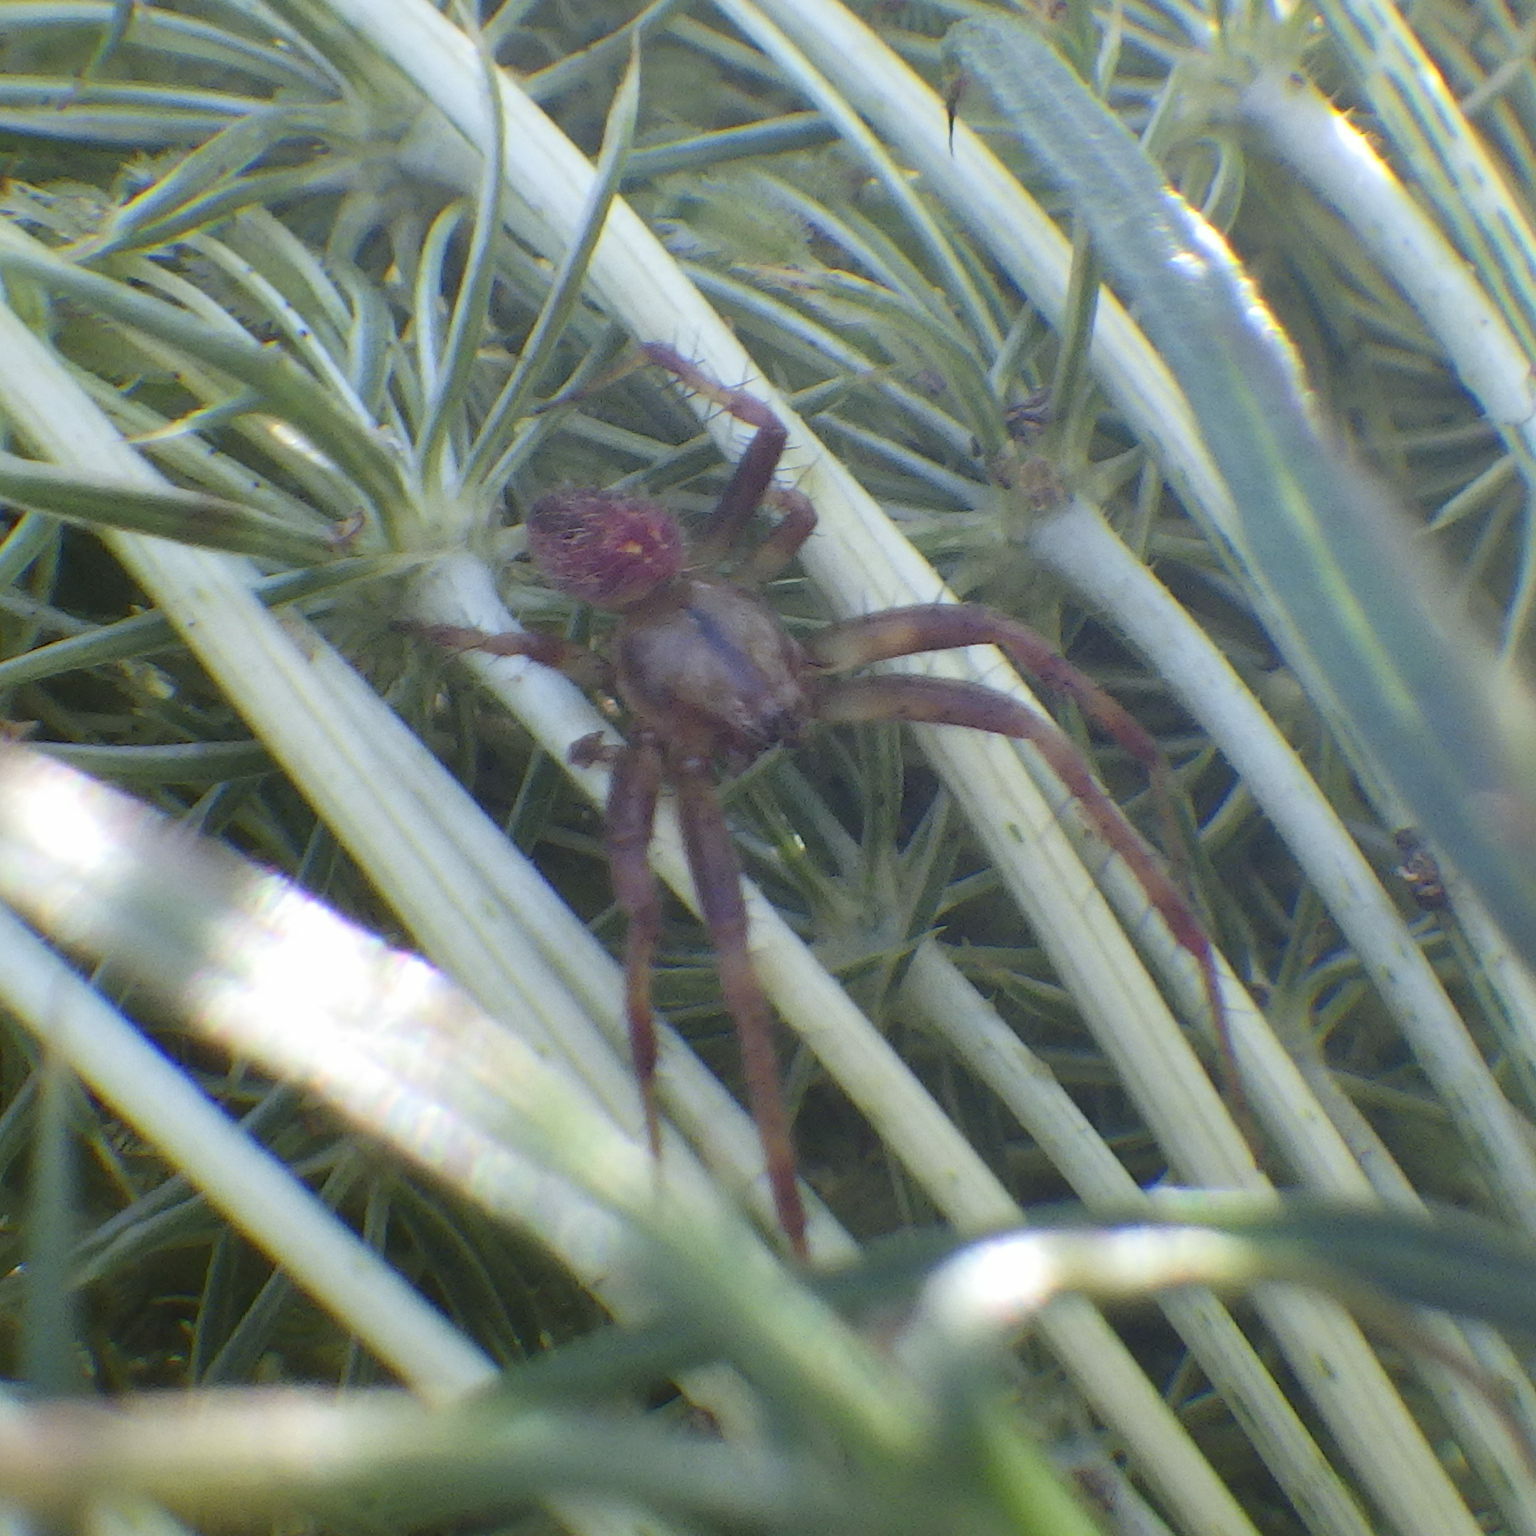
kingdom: Animalia
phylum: Arthropoda
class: Arachnida
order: Araneae
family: Araneidae
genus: Neoscona
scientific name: Neoscona arabesca
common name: Orb weavers
